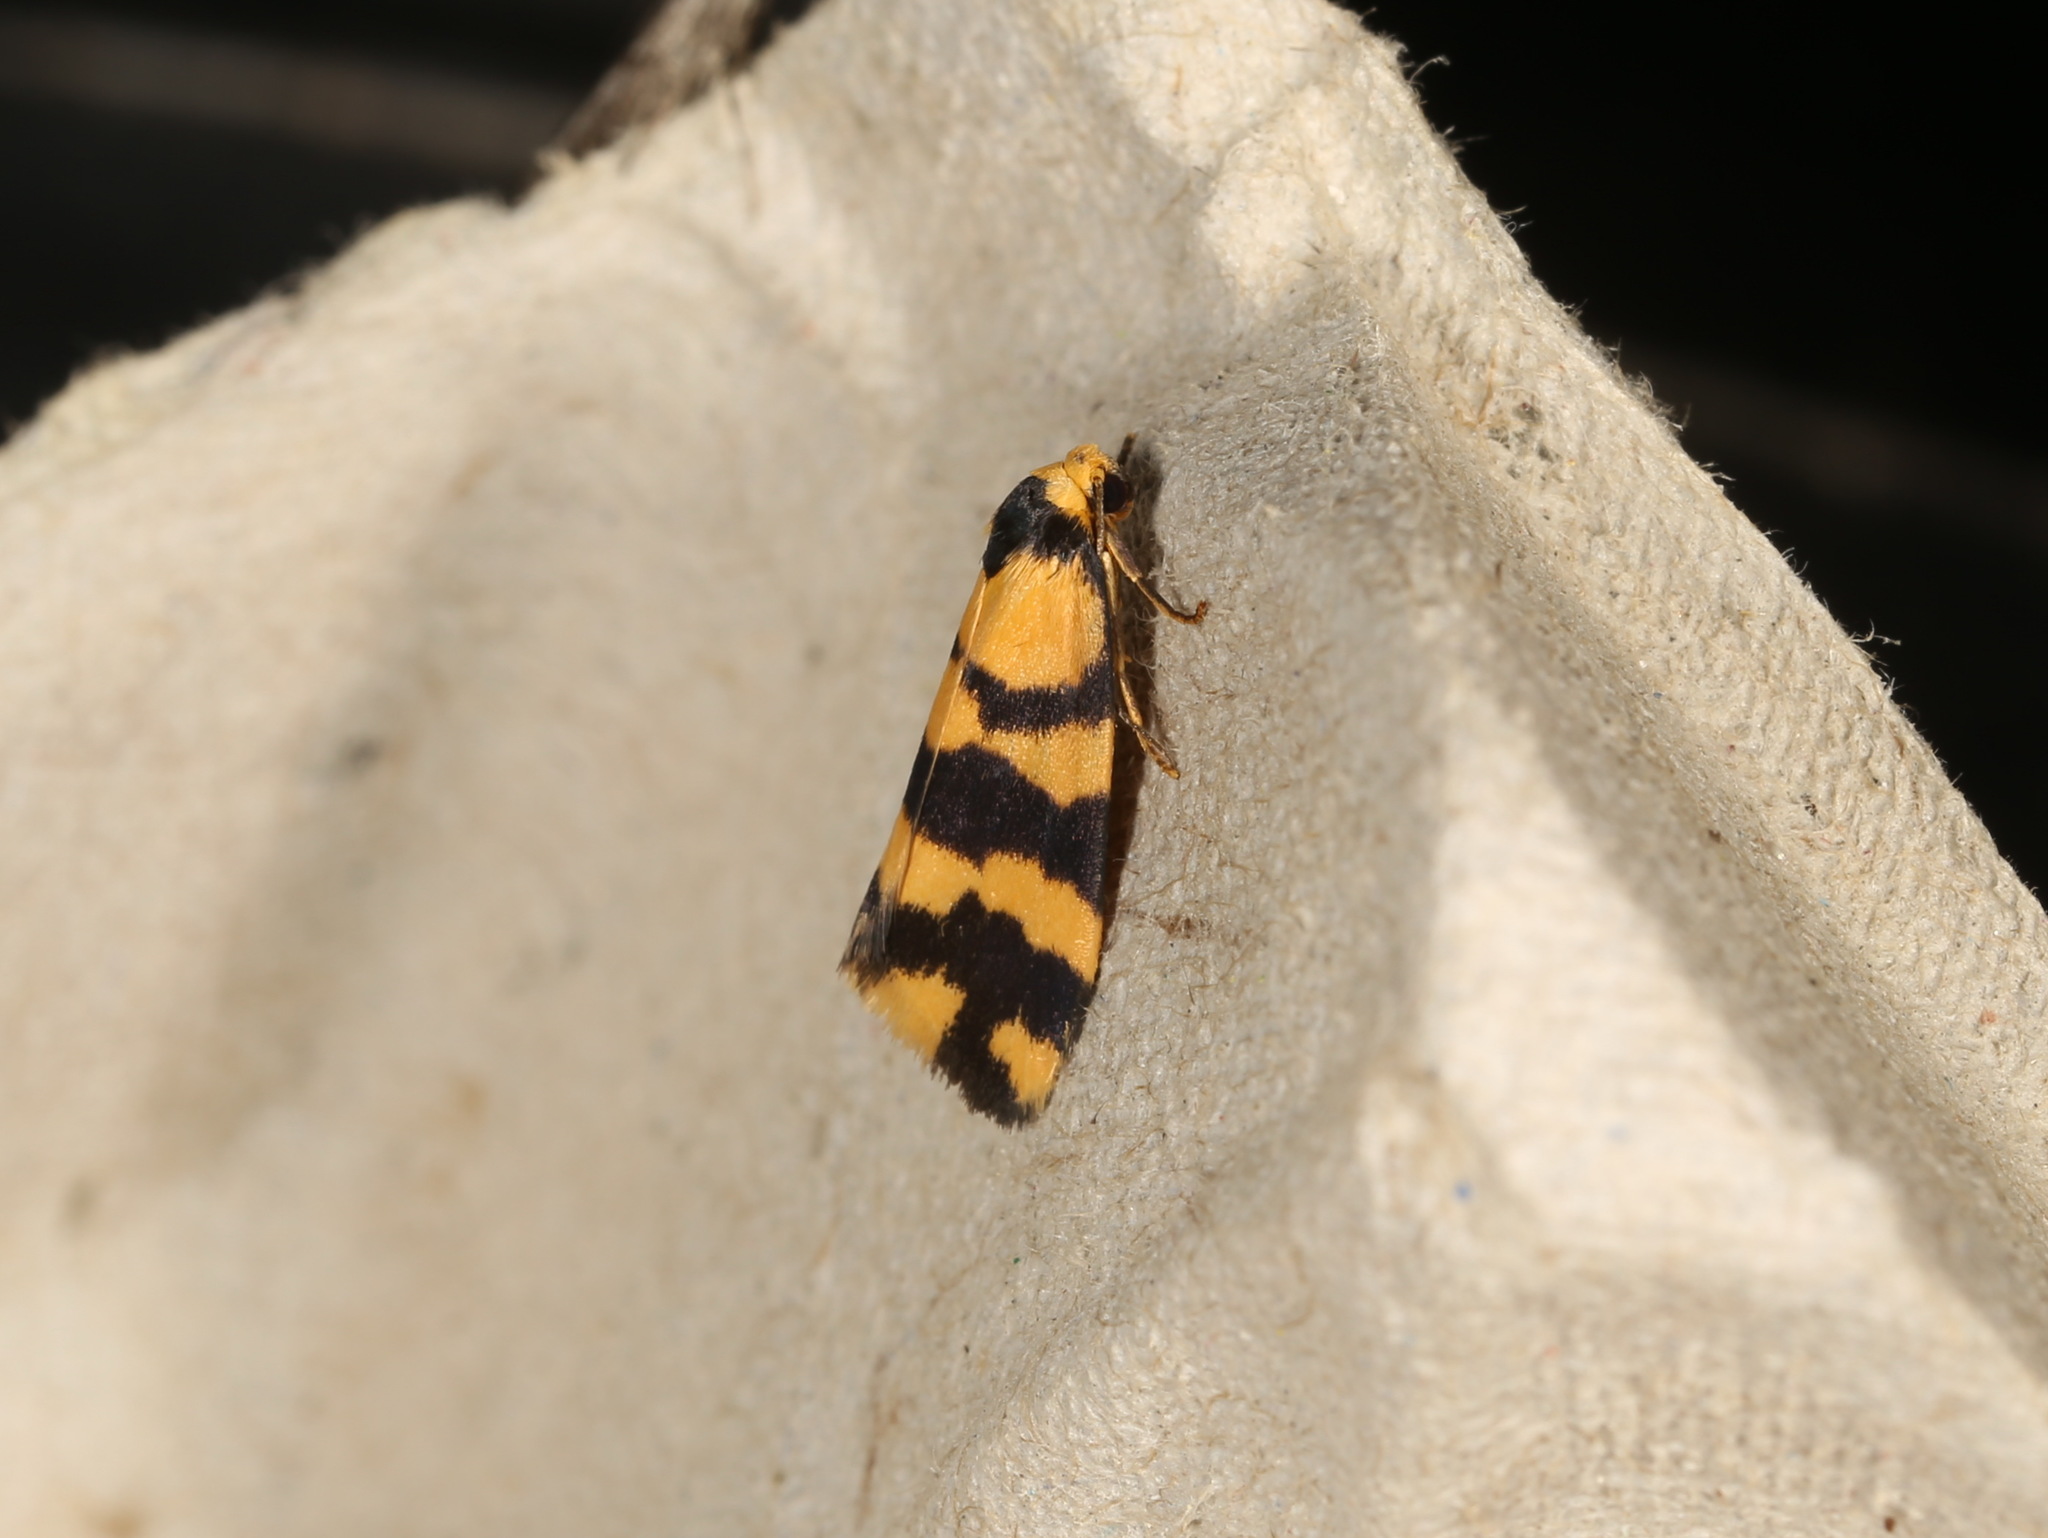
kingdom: Animalia
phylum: Arthropoda
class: Insecta
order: Lepidoptera
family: Erebidae
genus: Thallarcha
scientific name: Thallarcha partita
